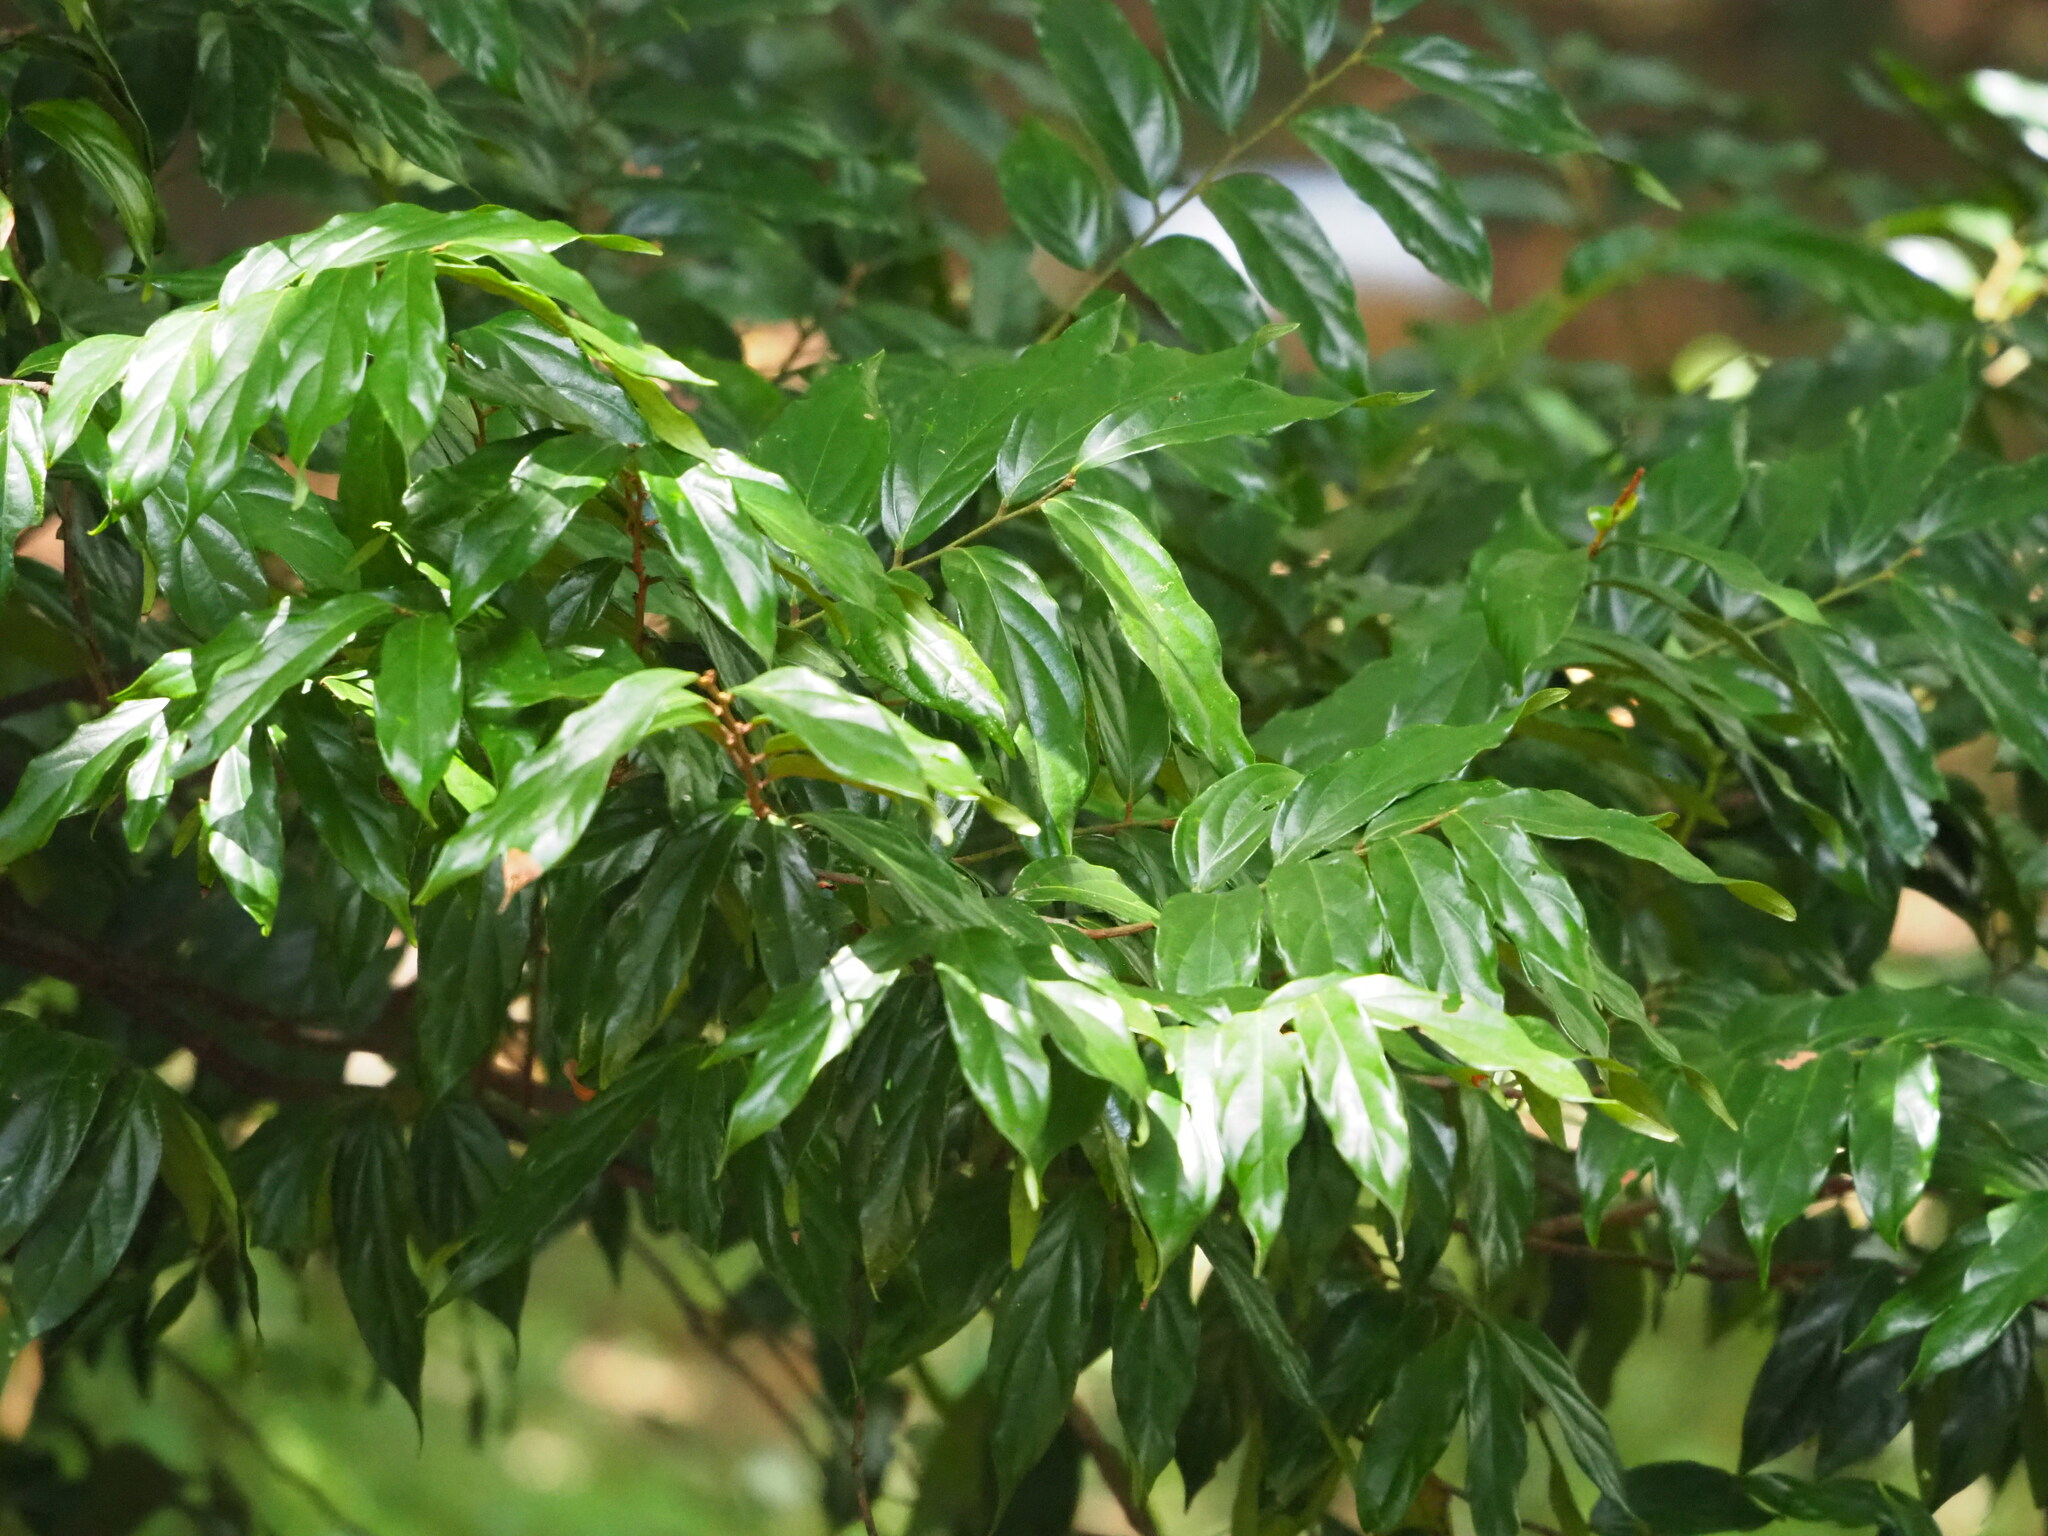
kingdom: Plantae
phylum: Tracheophyta
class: Magnoliopsida
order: Ericales
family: Ebenaceae
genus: Diospyros
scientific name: Diospyros eriantha
